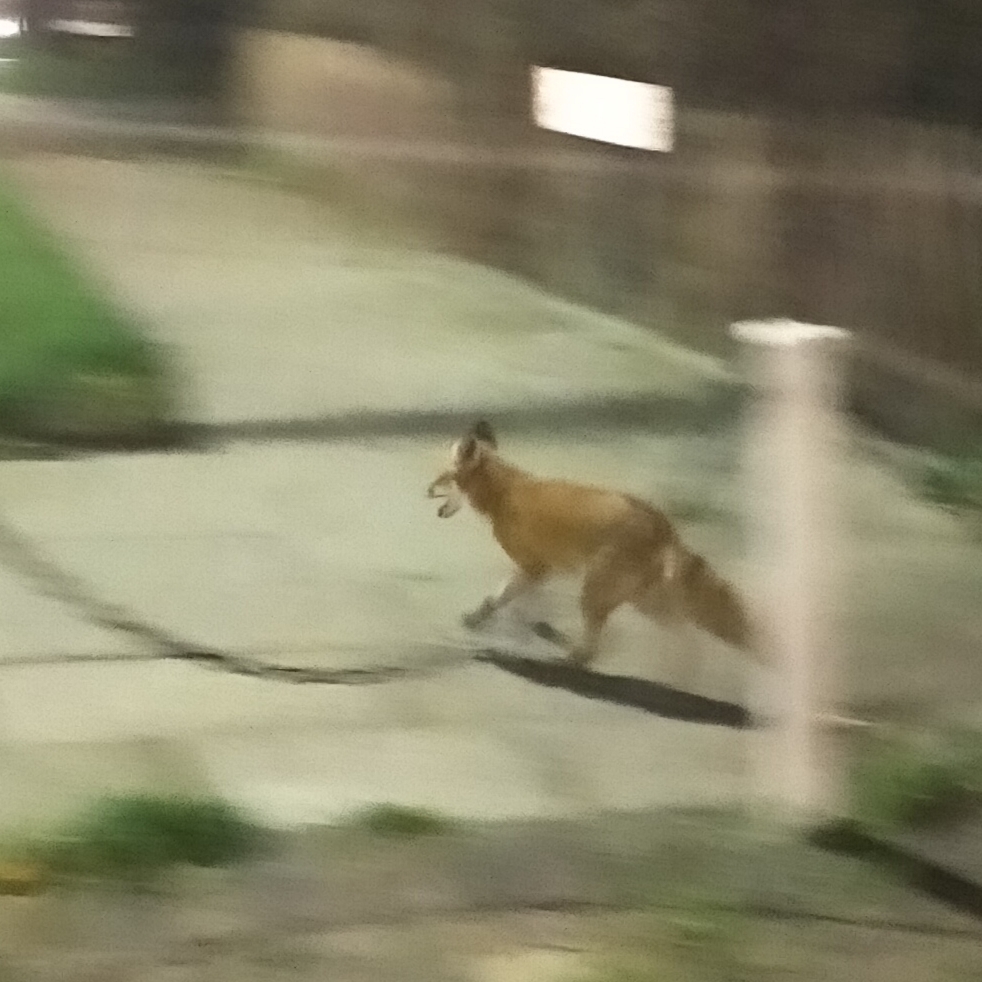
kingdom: Animalia
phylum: Chordata
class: Mammalia
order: Carnivora
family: Canidae
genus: Vulpes
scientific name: Vulpes vulpes
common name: Red fox
